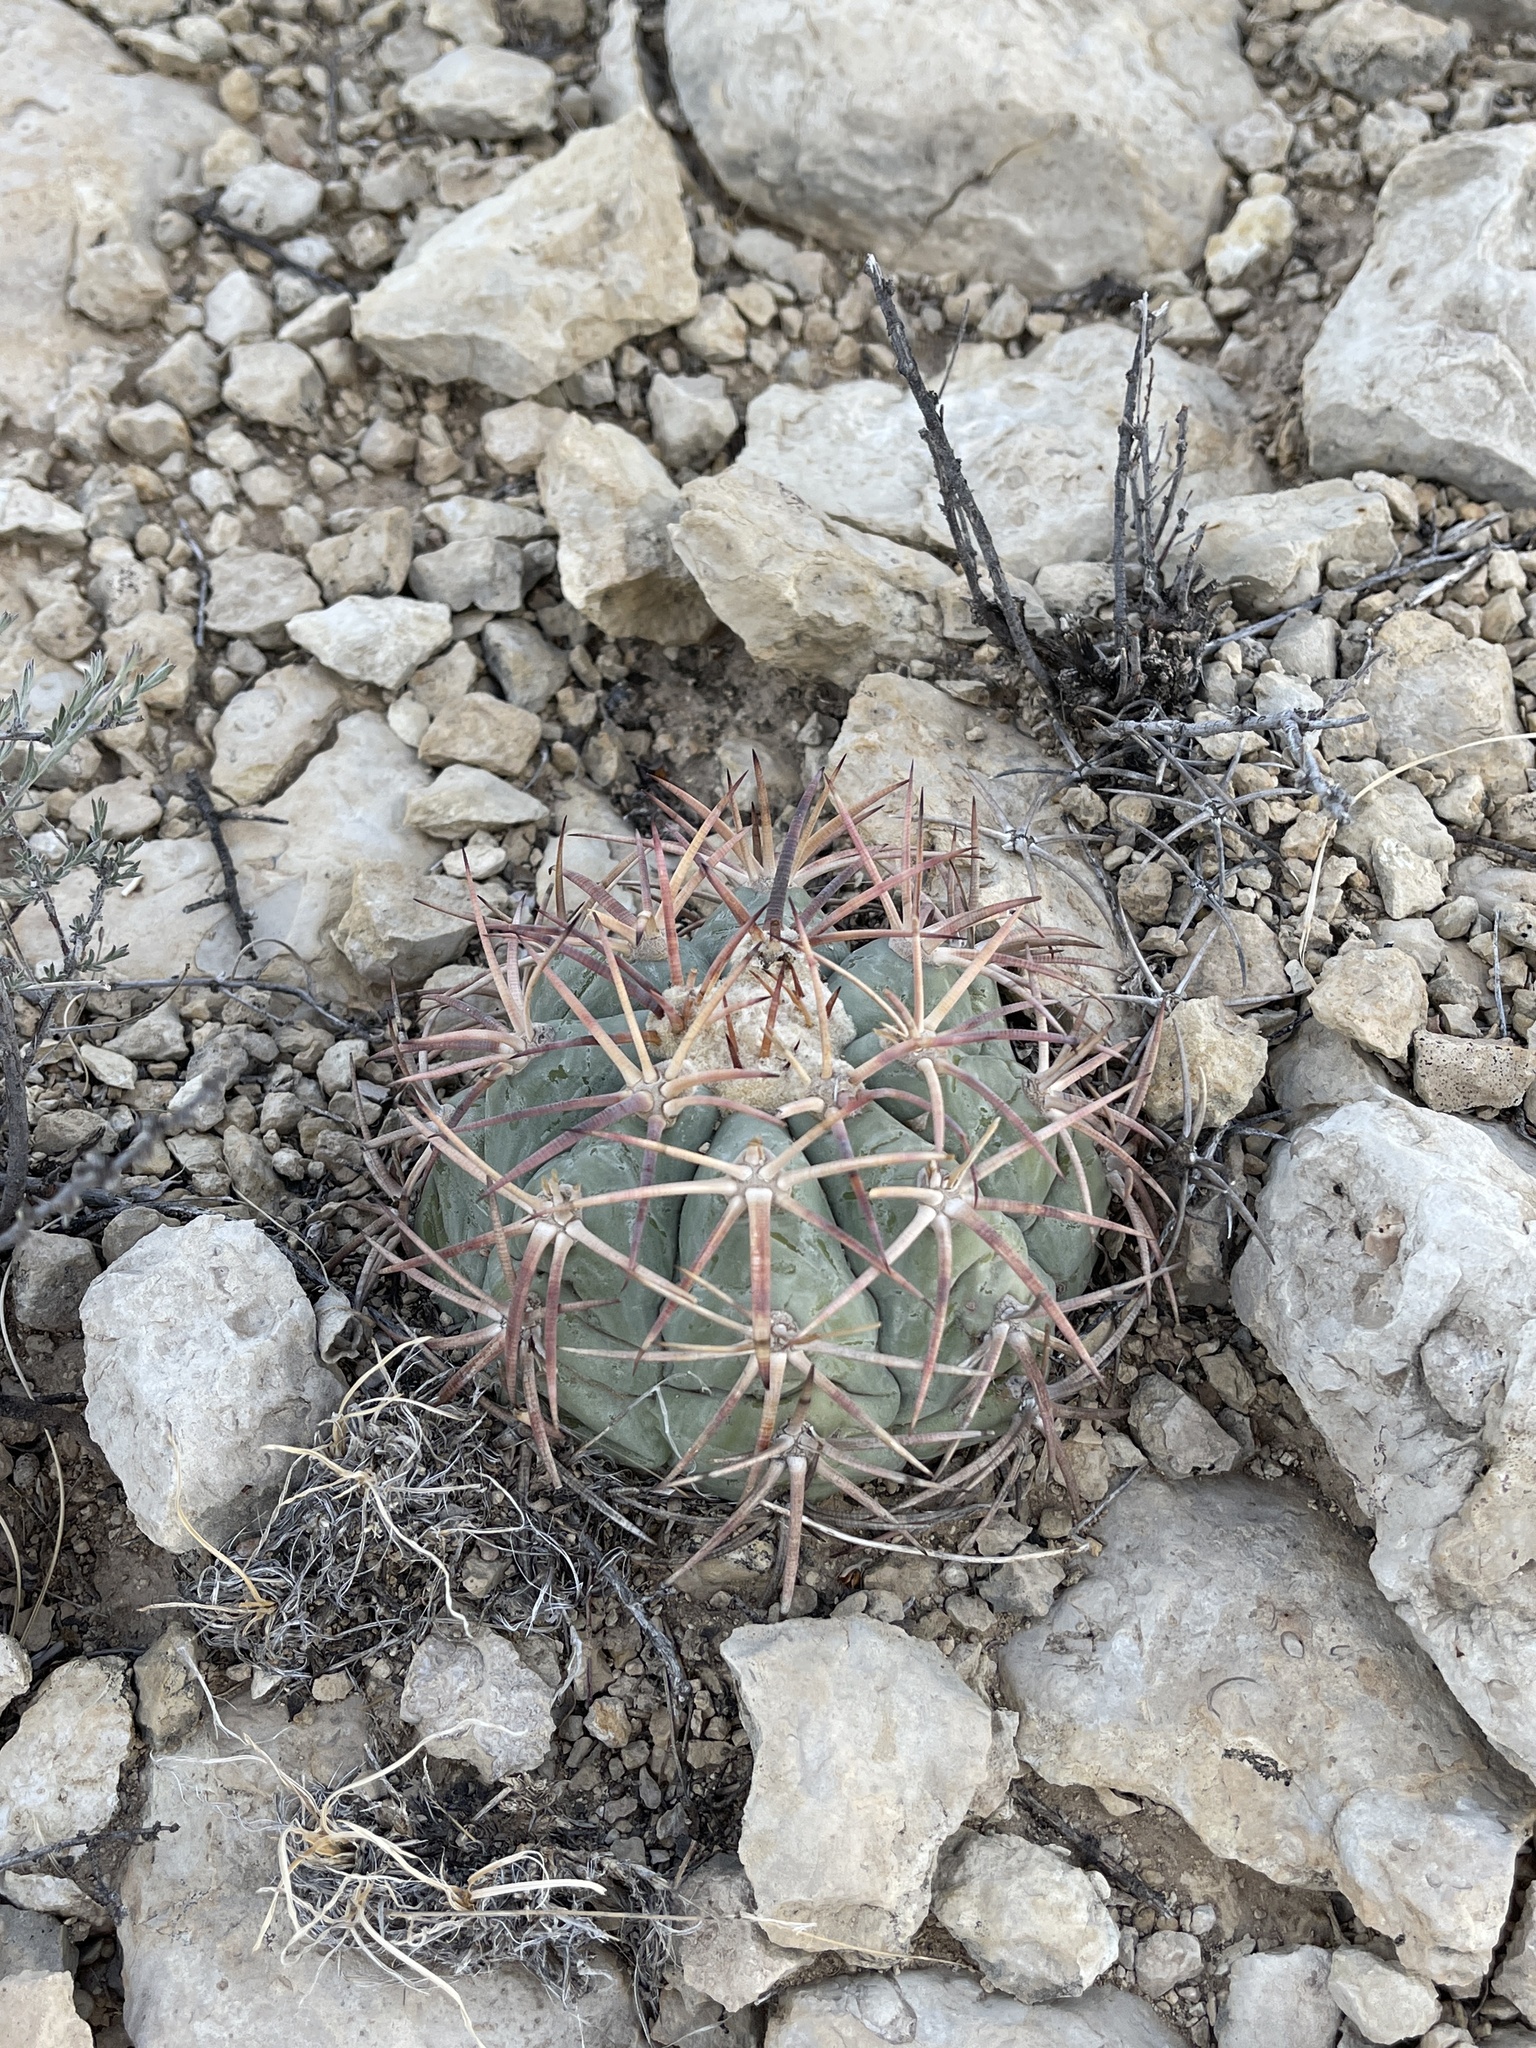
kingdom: Plantae
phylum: Tracheophyta
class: Magnoliopsida
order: Caryophyllales
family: Cactaceae
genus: Echinocactus
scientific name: Echinocactus horizonthalonius
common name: Devilshead
